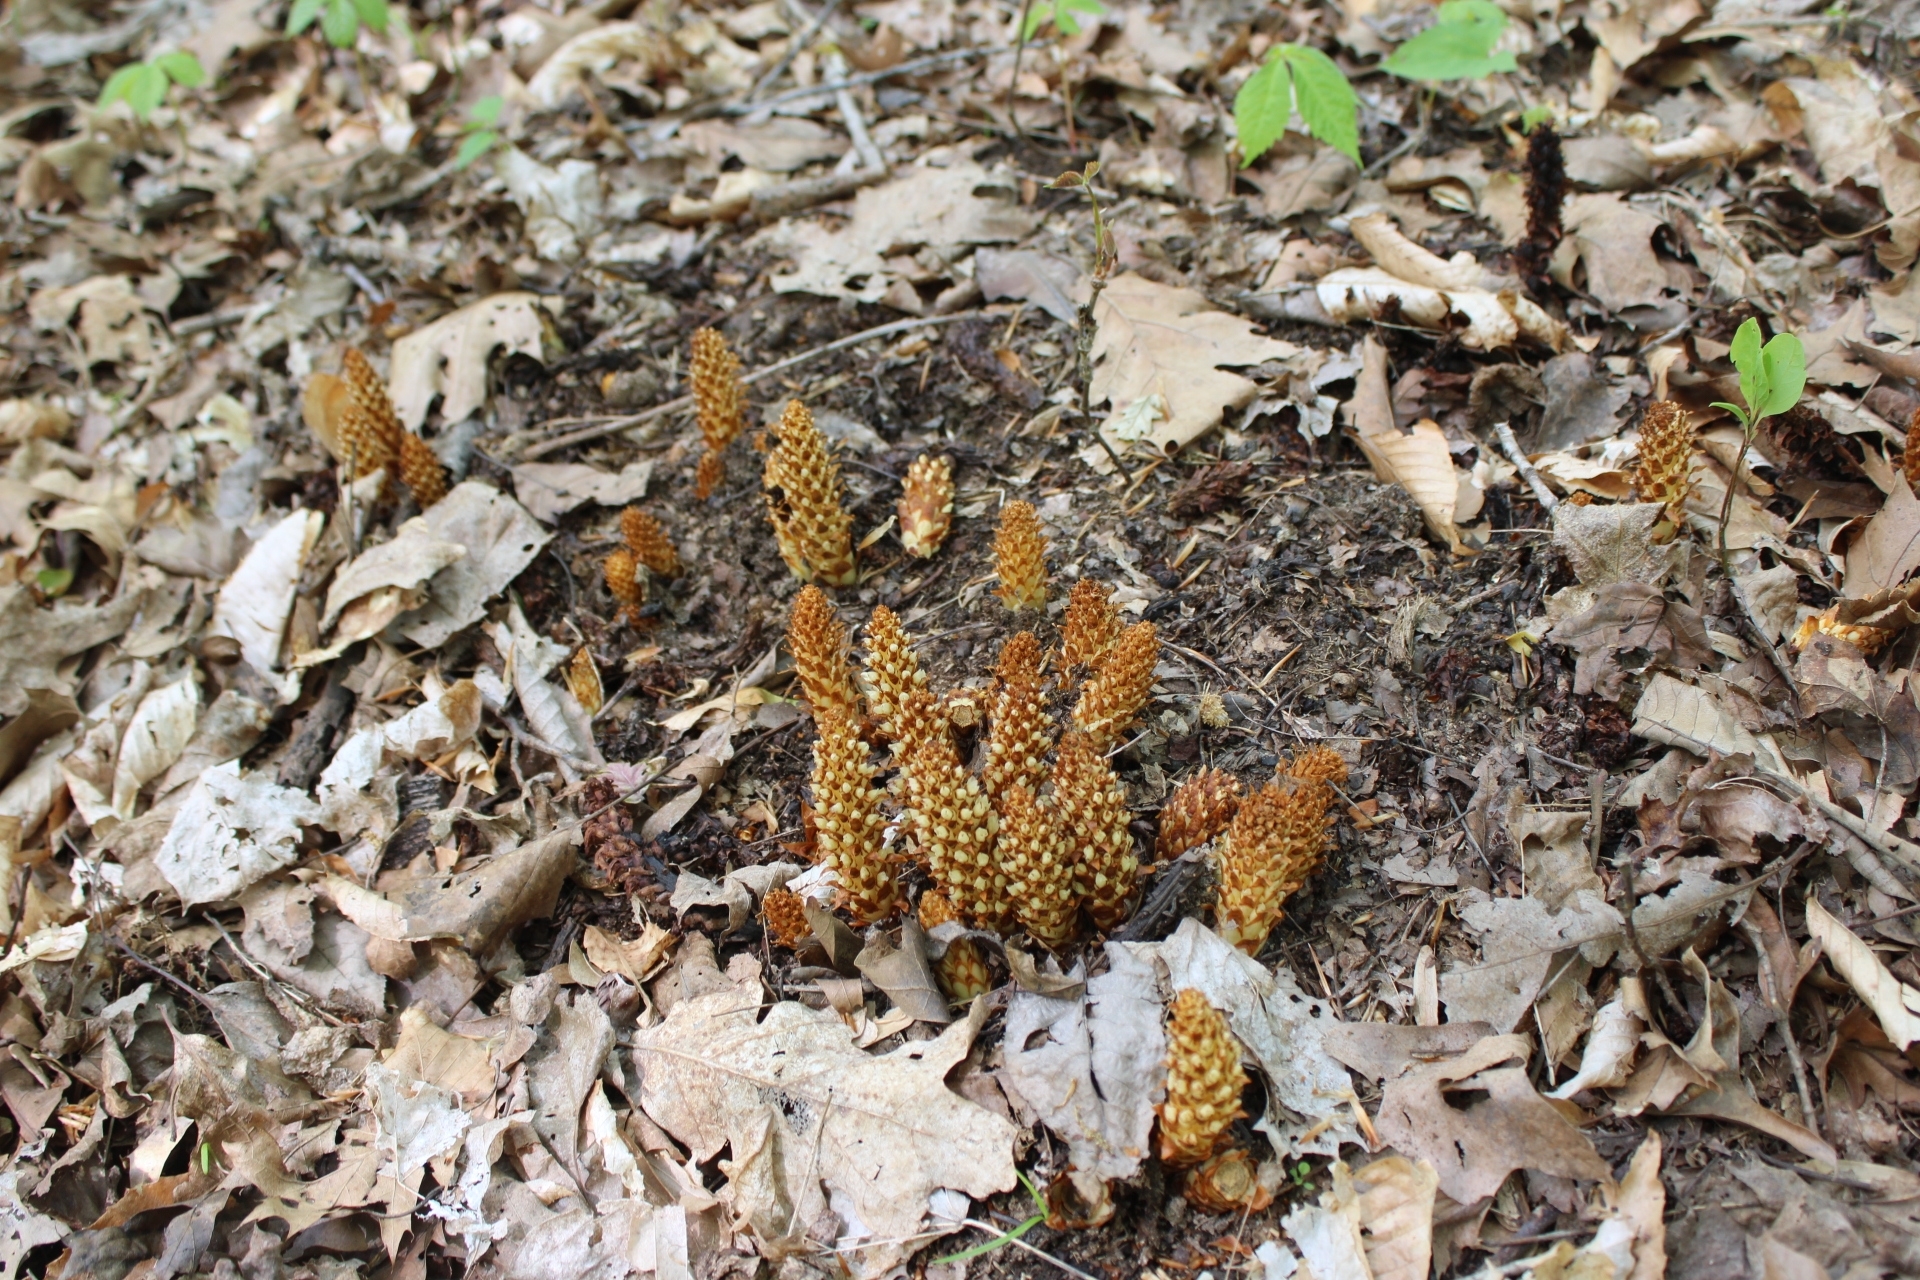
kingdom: Plantae
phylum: Tracheophyta
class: Magnoliopsida
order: Lamiales
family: Orobanchaceae
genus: Conopholis
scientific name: Conopholis americana
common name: American cancer-root
